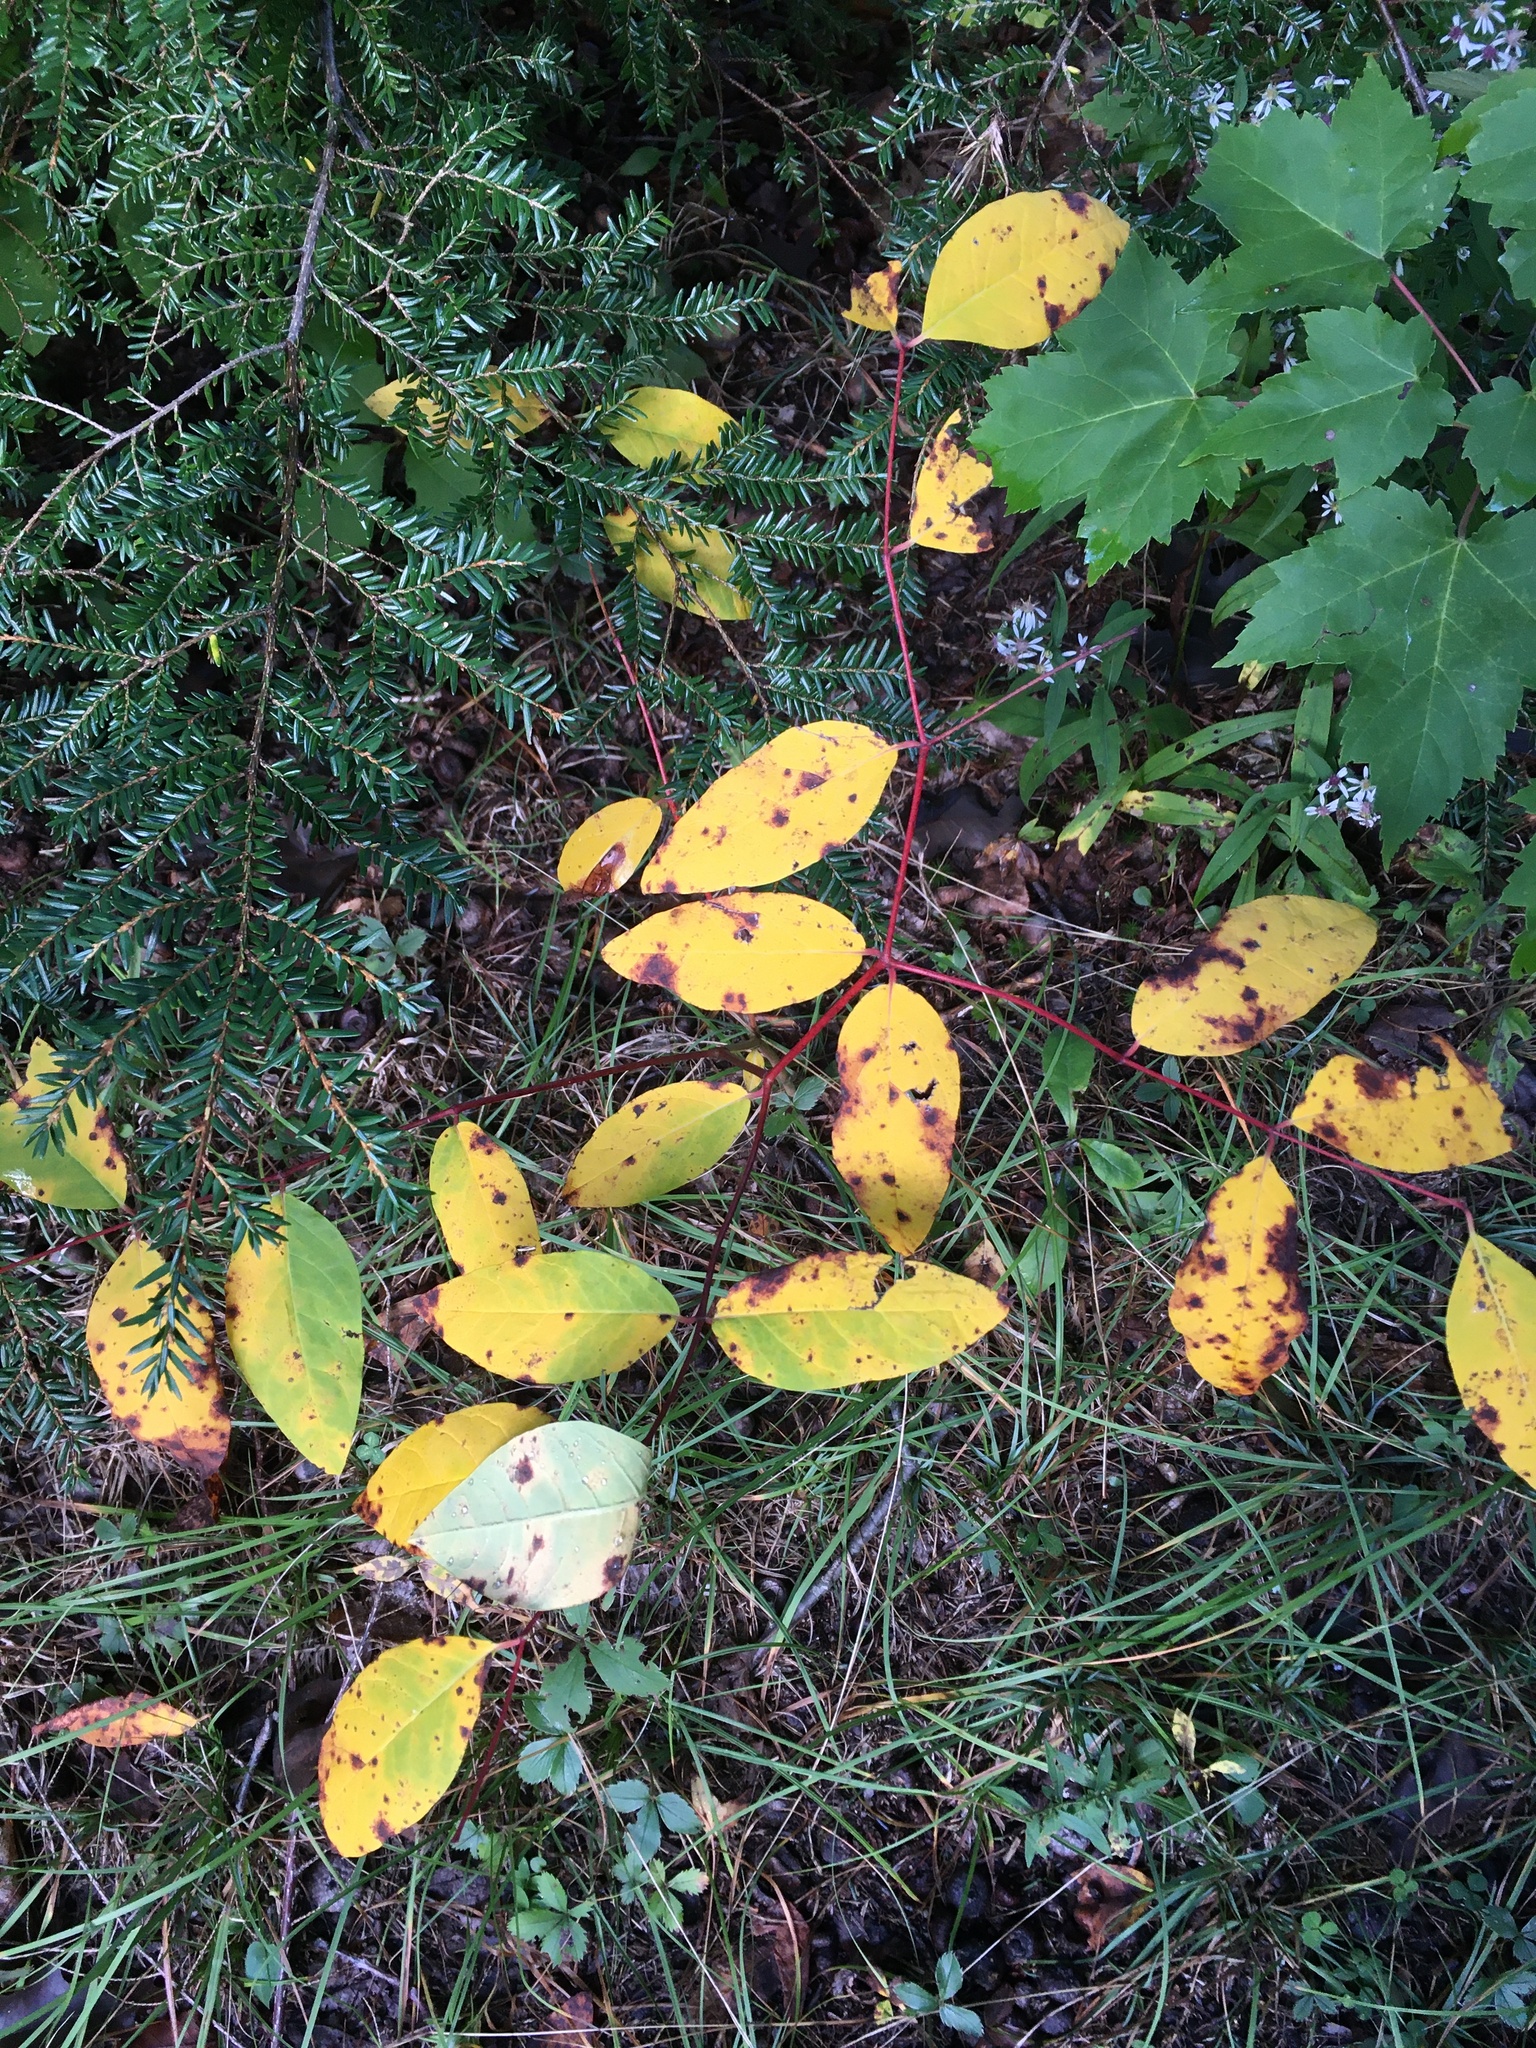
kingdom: Plantae
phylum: Tracheophyta
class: Magnoliopsida
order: Gentianales
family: Apocynaceae
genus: Apocynum
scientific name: Apocynum androsaemifolium
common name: Spreading dogbane
